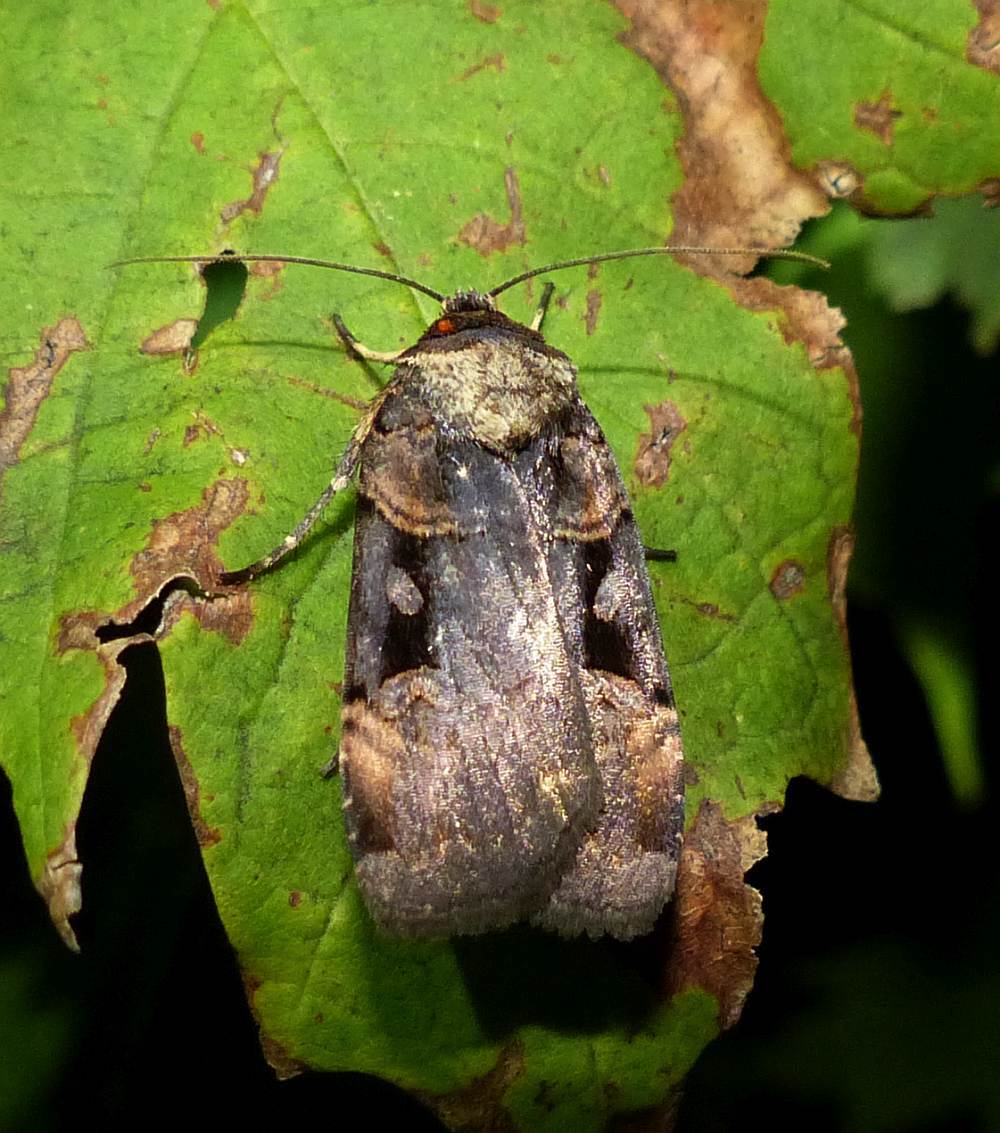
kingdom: Animalia
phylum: Arthropoda
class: Insecta
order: Lepidoptera
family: Noctuidae
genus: Pseudohermonassa
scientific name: Pseudohermonassa bicarnea
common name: Pink spotted dart
